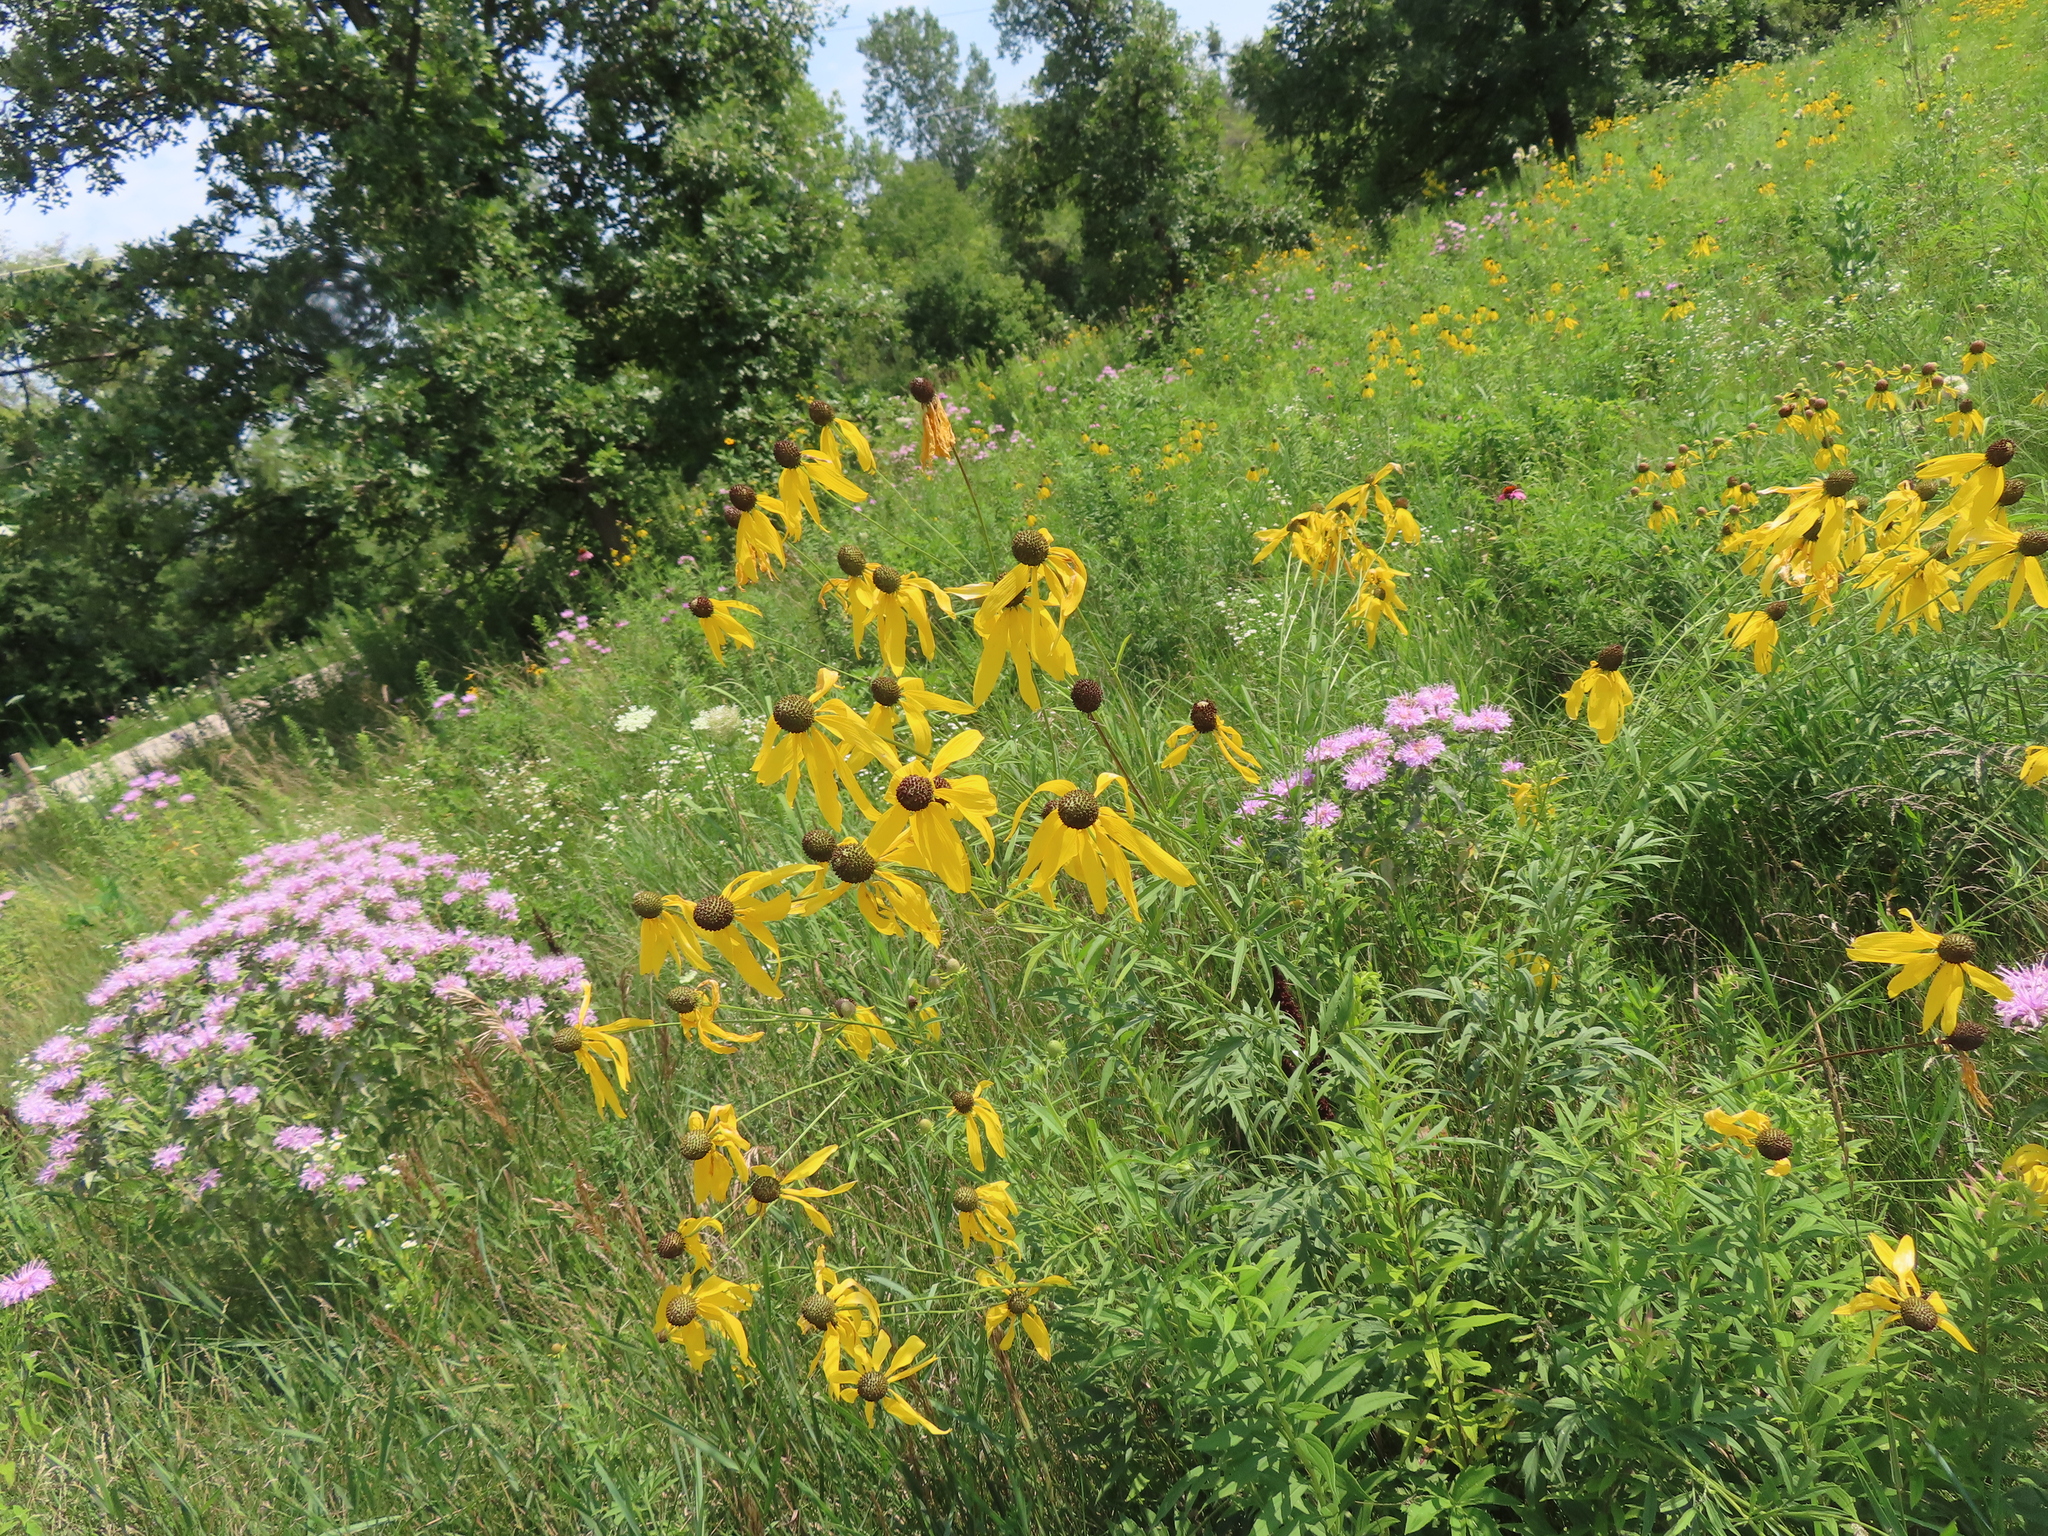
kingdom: Plantae
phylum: Tracheophyta
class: Magnoliopsida
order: Asterales
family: Asteraceae
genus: Ratibida
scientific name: Ratibida pinnata
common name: Drooping prairie-coneflower
